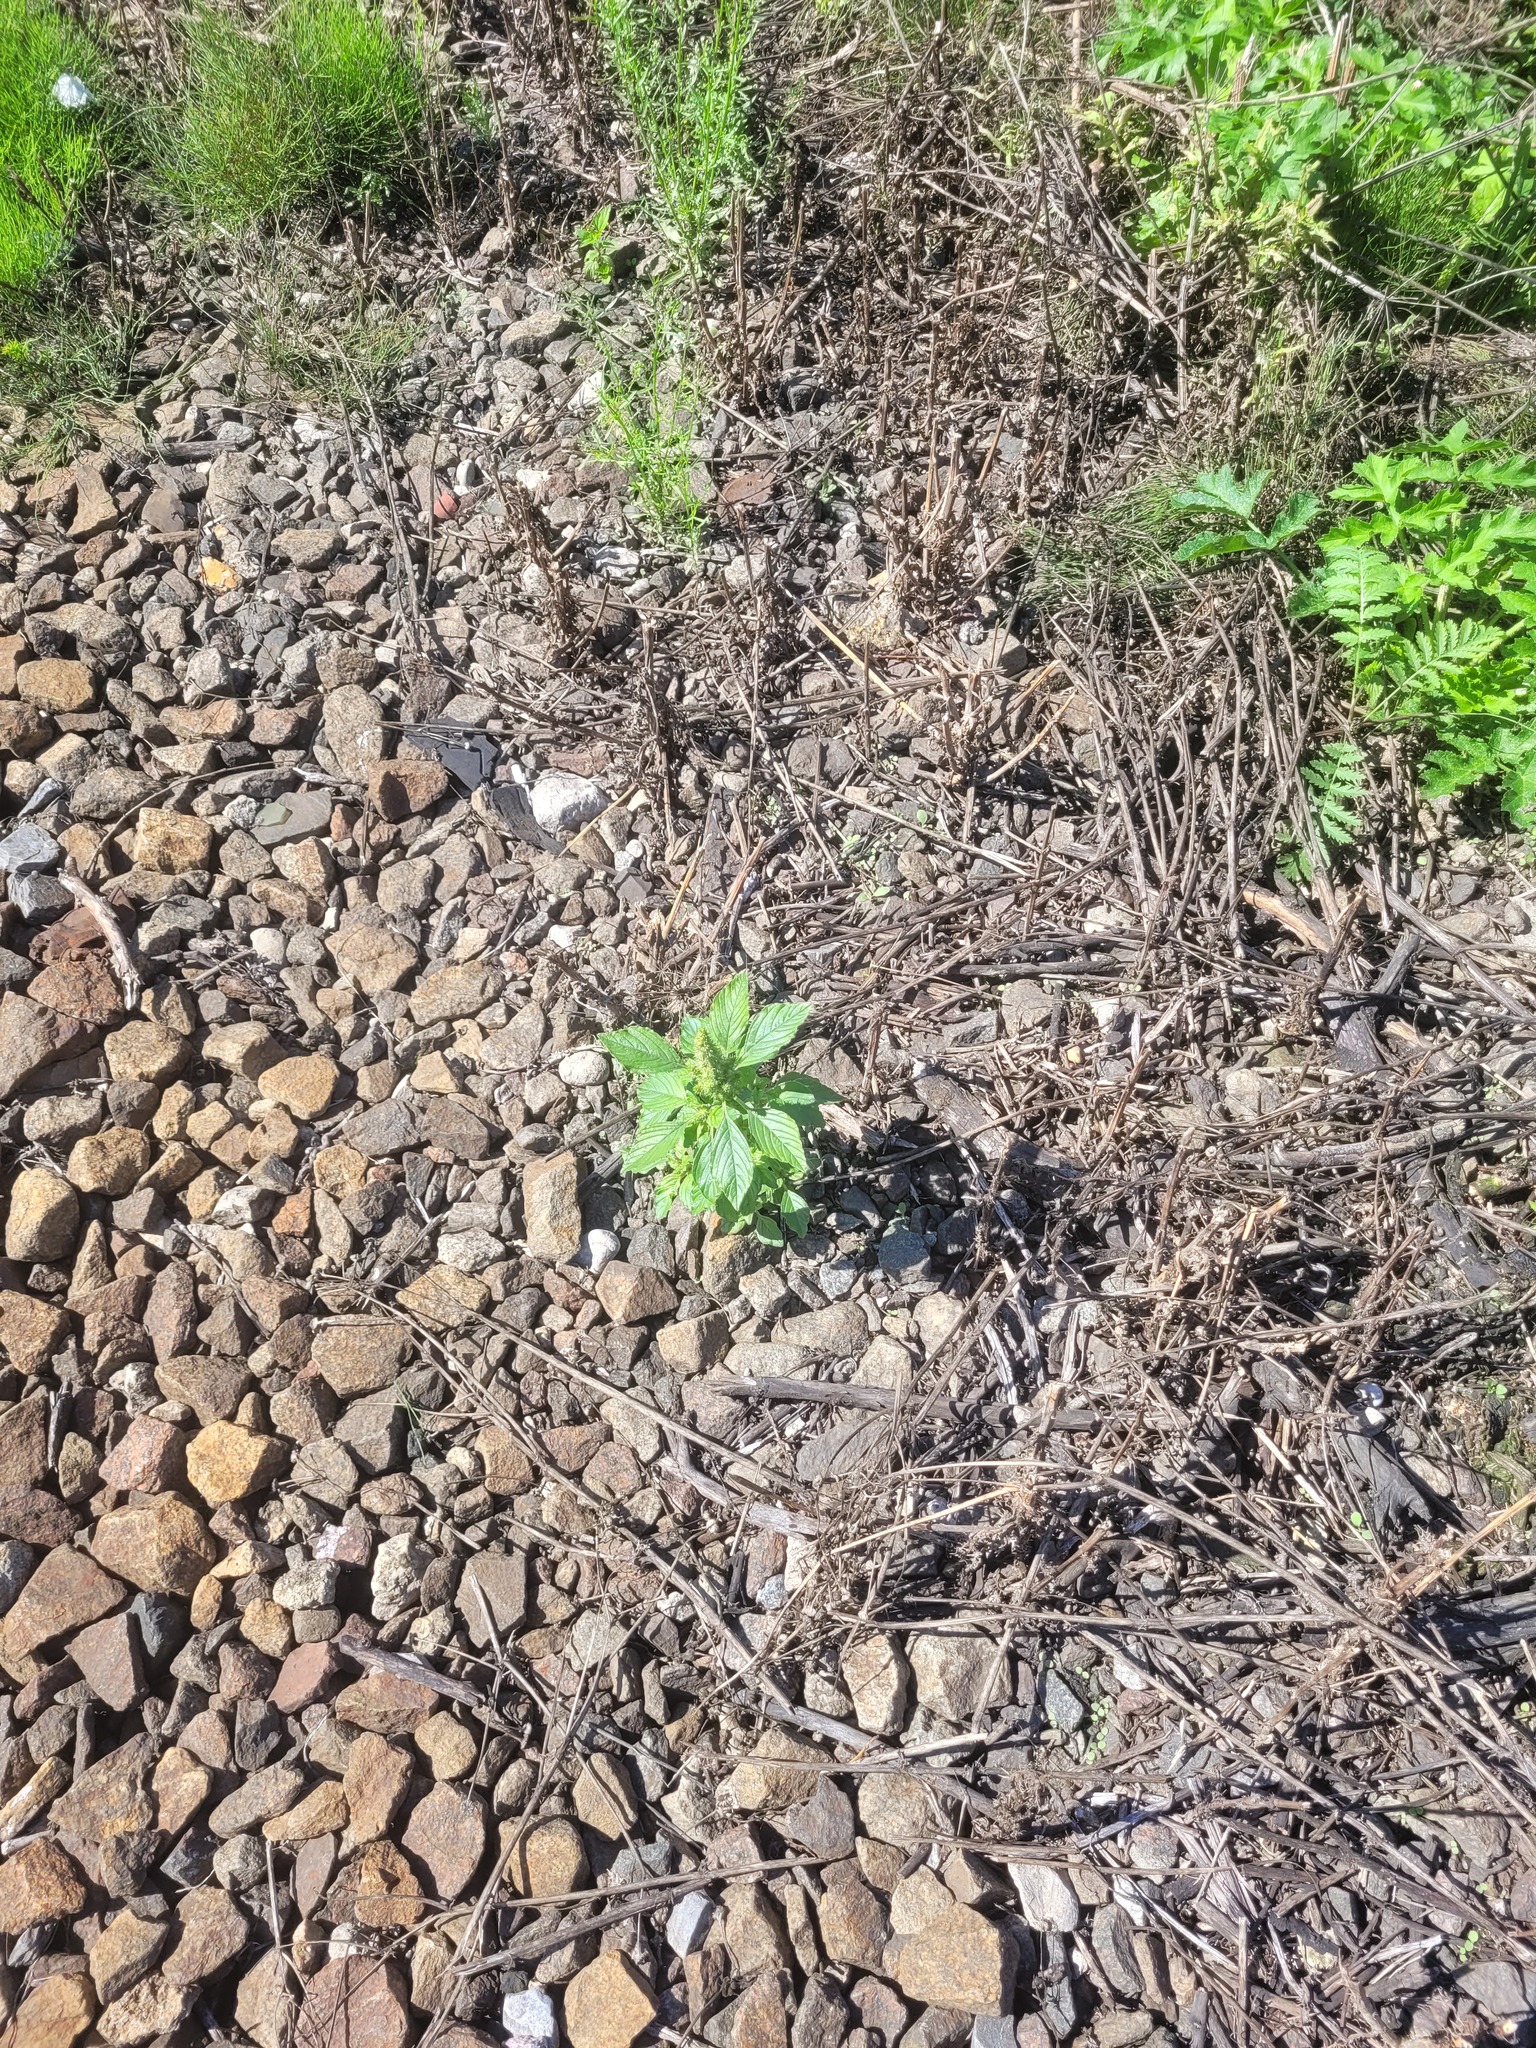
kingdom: Plantae
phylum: Tracheophyta
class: Magnoliopsida
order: Caryophyllales
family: Amaranthaceae
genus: Amaranthus
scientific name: Amaranthus retroflexus
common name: Redroot amaranth
